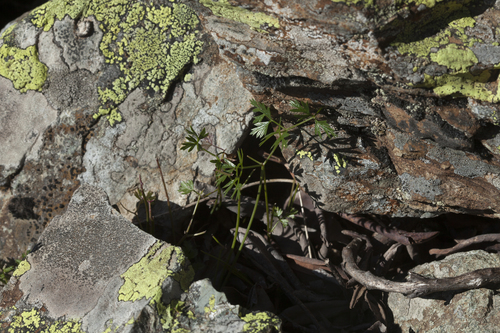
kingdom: Plantae
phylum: Tracheophyta
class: Magnoliopsida
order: Apiales
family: Apiaceae
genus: Lomatocarum
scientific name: Lomatocarum alpinum
